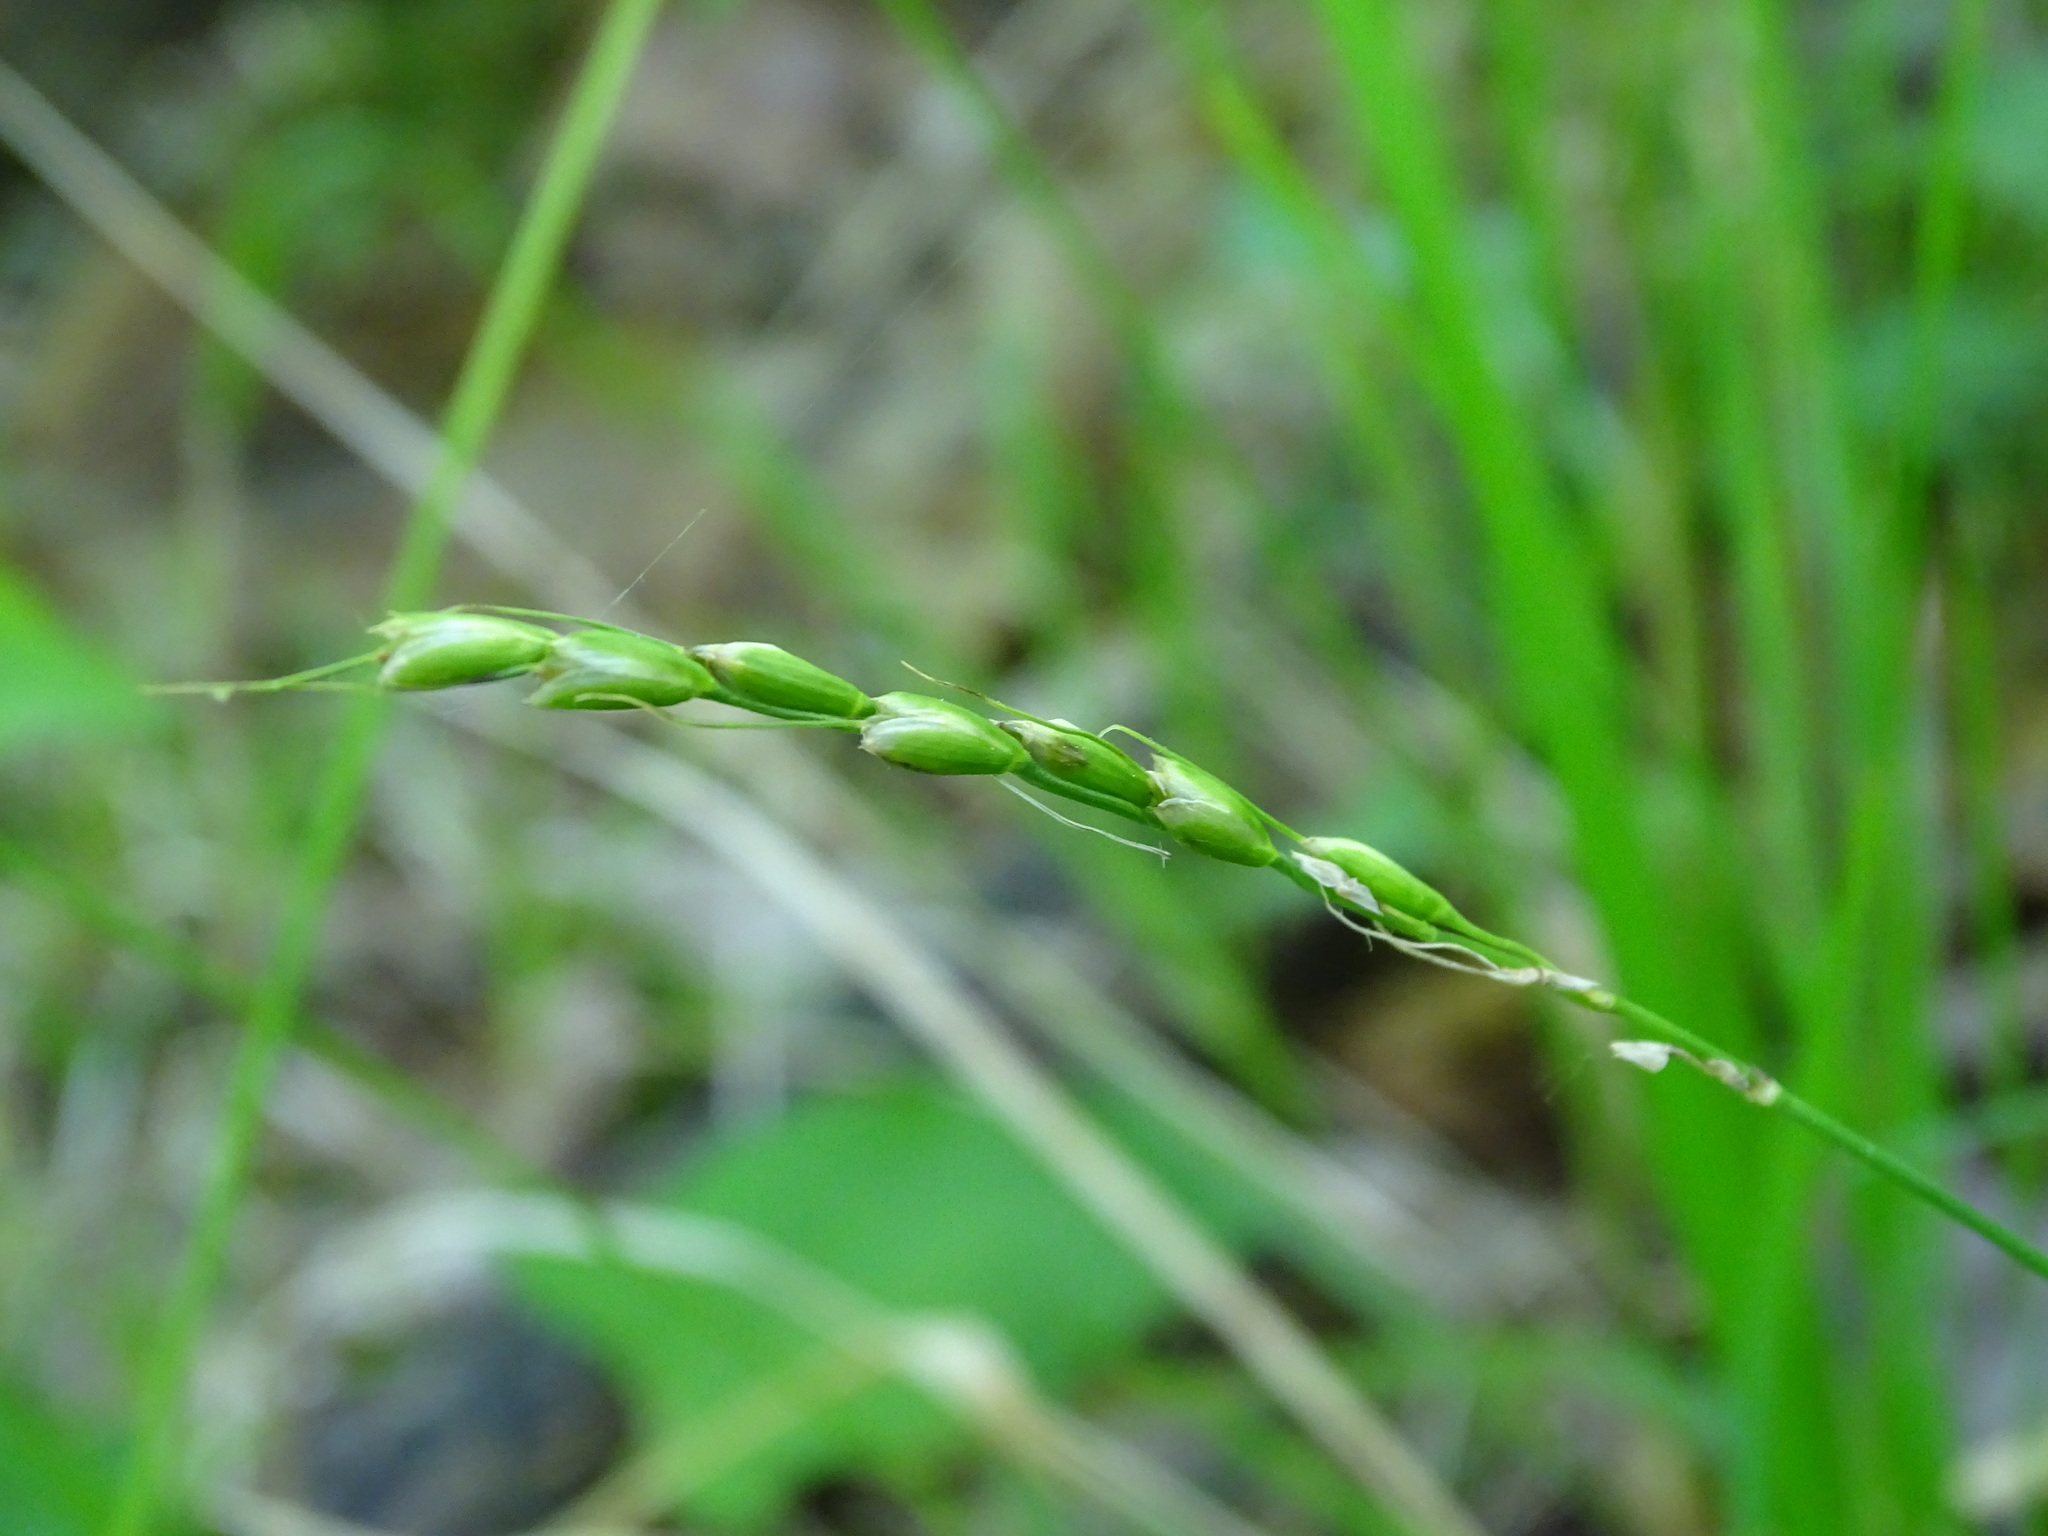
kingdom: Plantae
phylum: Tracheophyta
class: Liliopsida
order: Poales
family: Poaceae
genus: Oryzopsis
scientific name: Oryzopsis asperifolia
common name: Rough-leaved mountain rice
